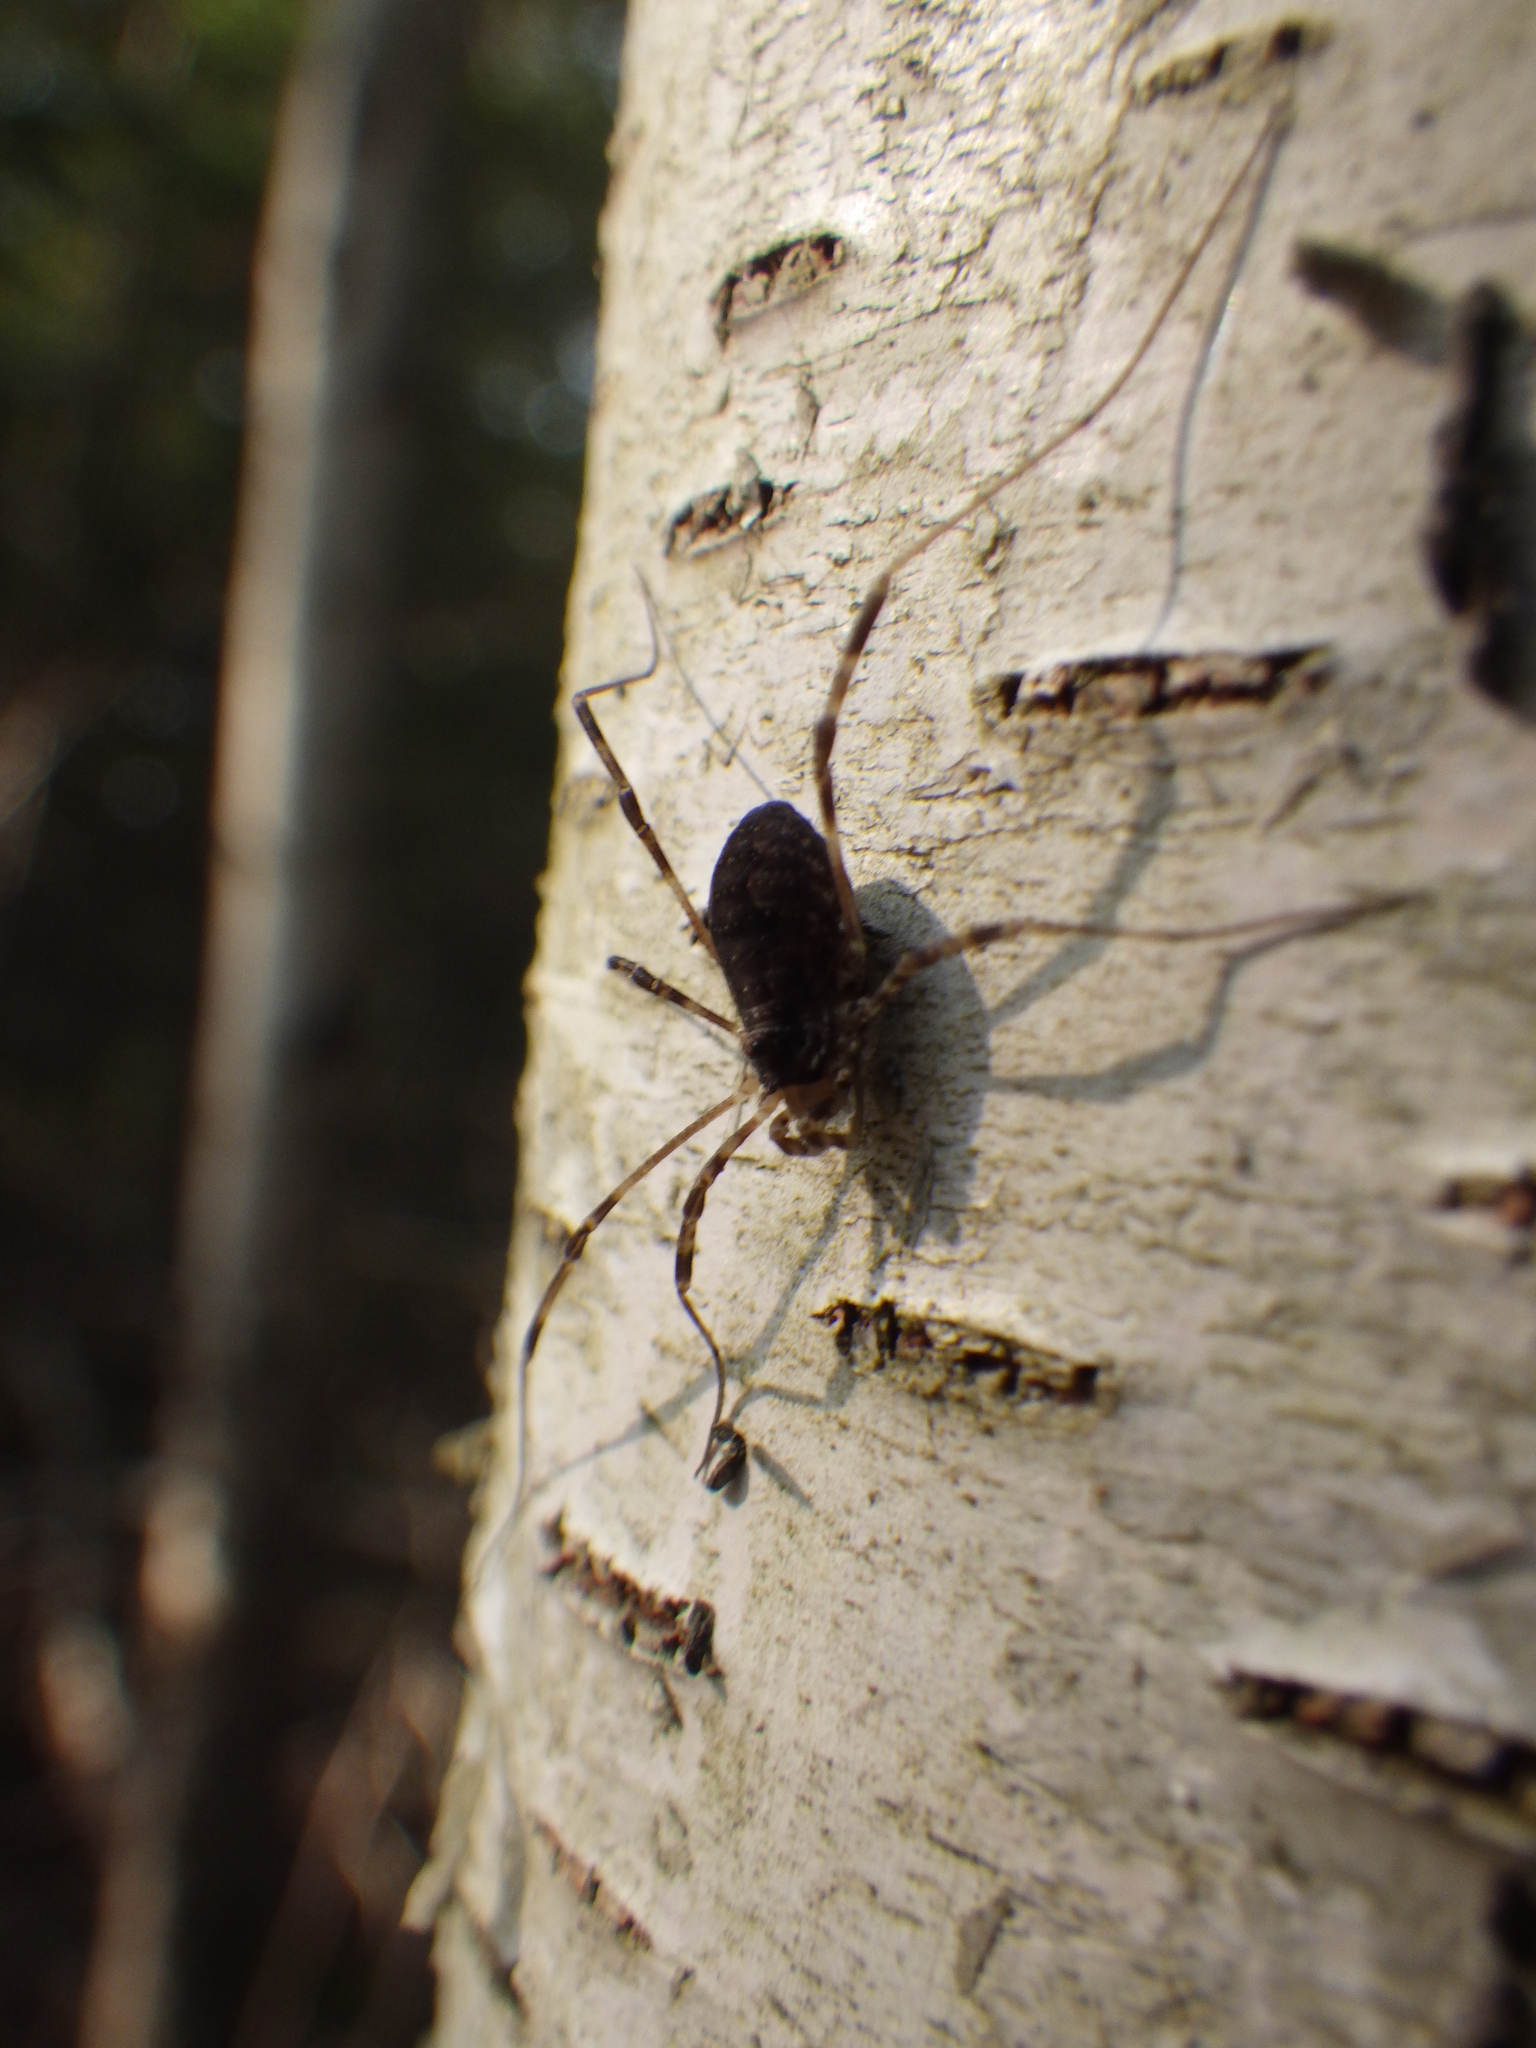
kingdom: Animalia
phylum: Arthropoda
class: Arachnida
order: Opiliones
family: Phalangiidae
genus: Odiellus
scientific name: Odiellus pictus
